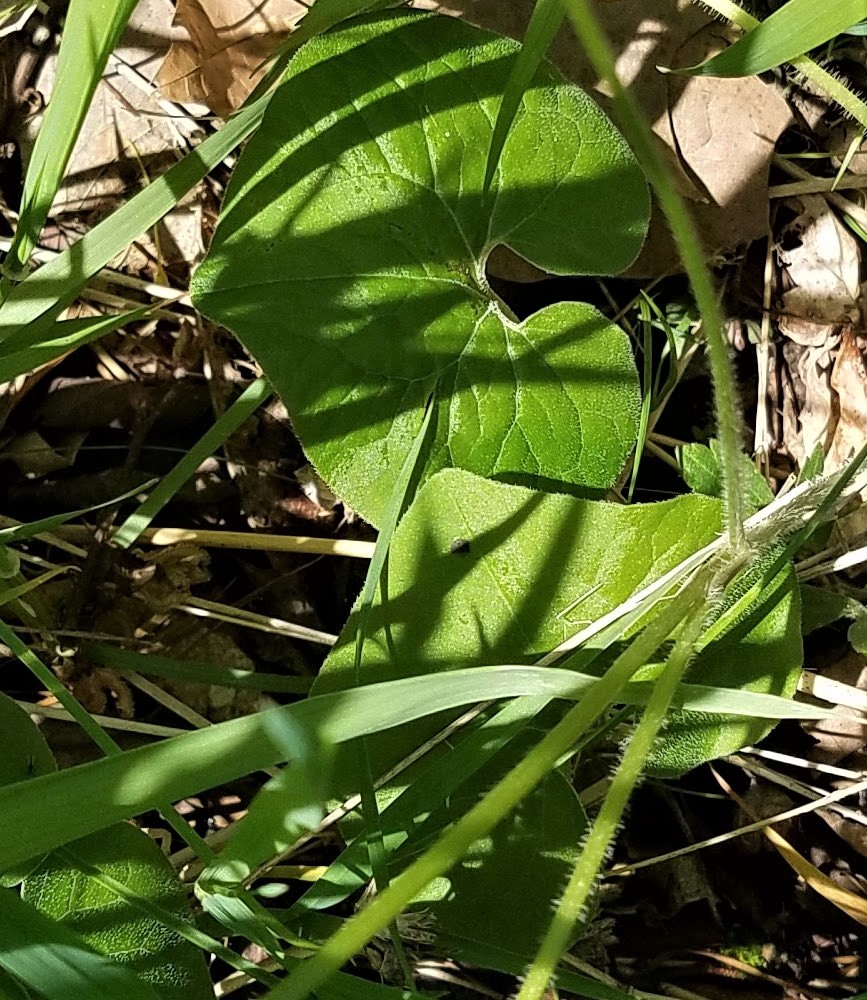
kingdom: Plantae
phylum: Tracheophyta
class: Magnoliopsida
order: Piperales
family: Aristolochiaceae
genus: Asarum
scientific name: Asarum canadense
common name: Wild ginger
